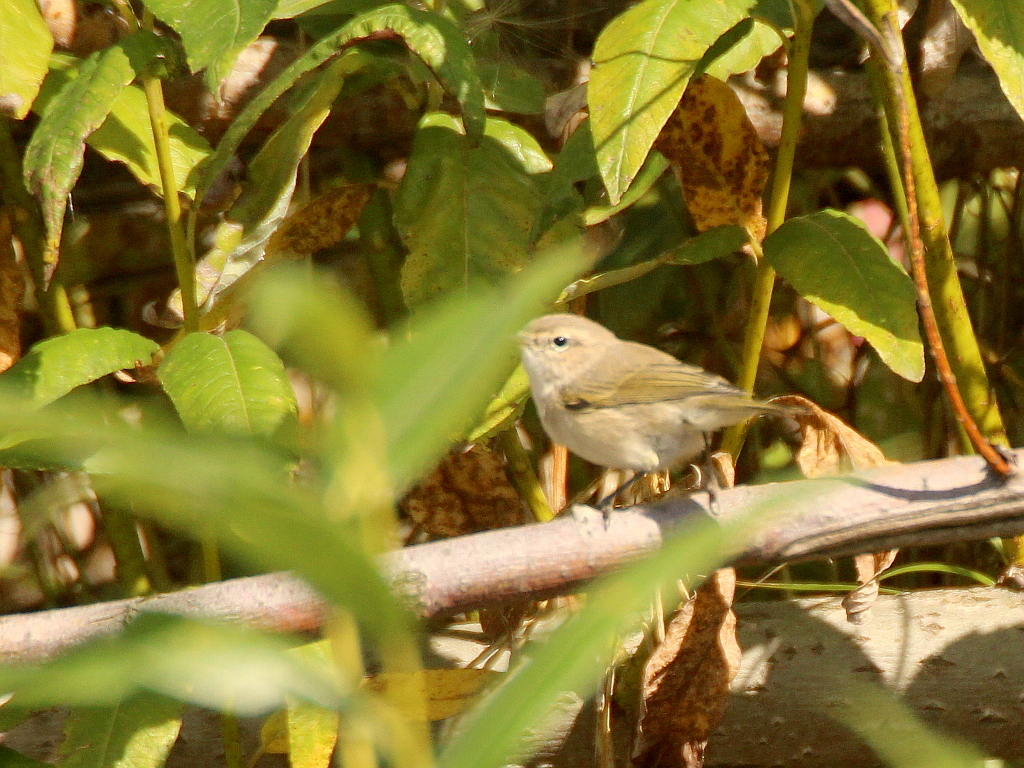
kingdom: Animalia
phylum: Chordata
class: Aves
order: Passeriformes
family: Phylloscopidae
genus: Phylloscopus
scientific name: Phylloscopus collybita
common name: Common chiffchaff
